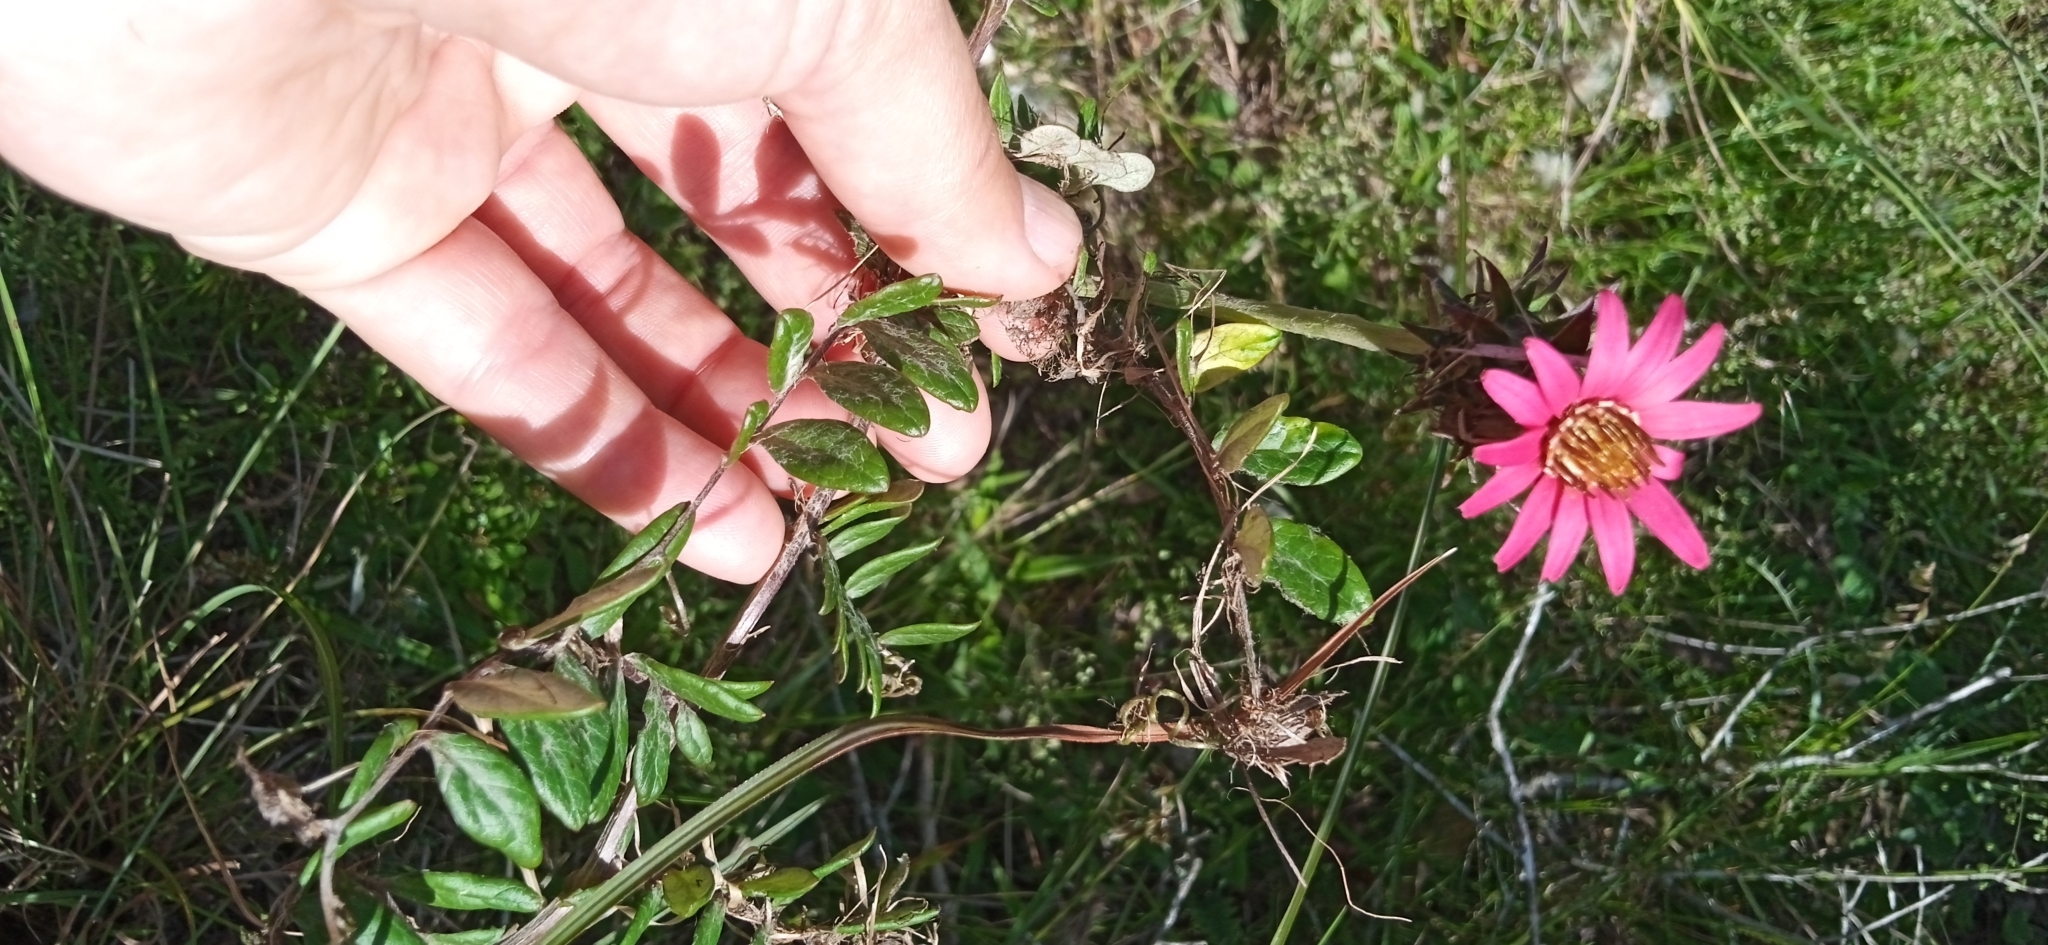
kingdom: Plantae
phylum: Tracheophyta
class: Magnoliopsida
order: Asterales
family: Asteraceae
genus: Mutisia
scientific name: Mutisia coccinea
